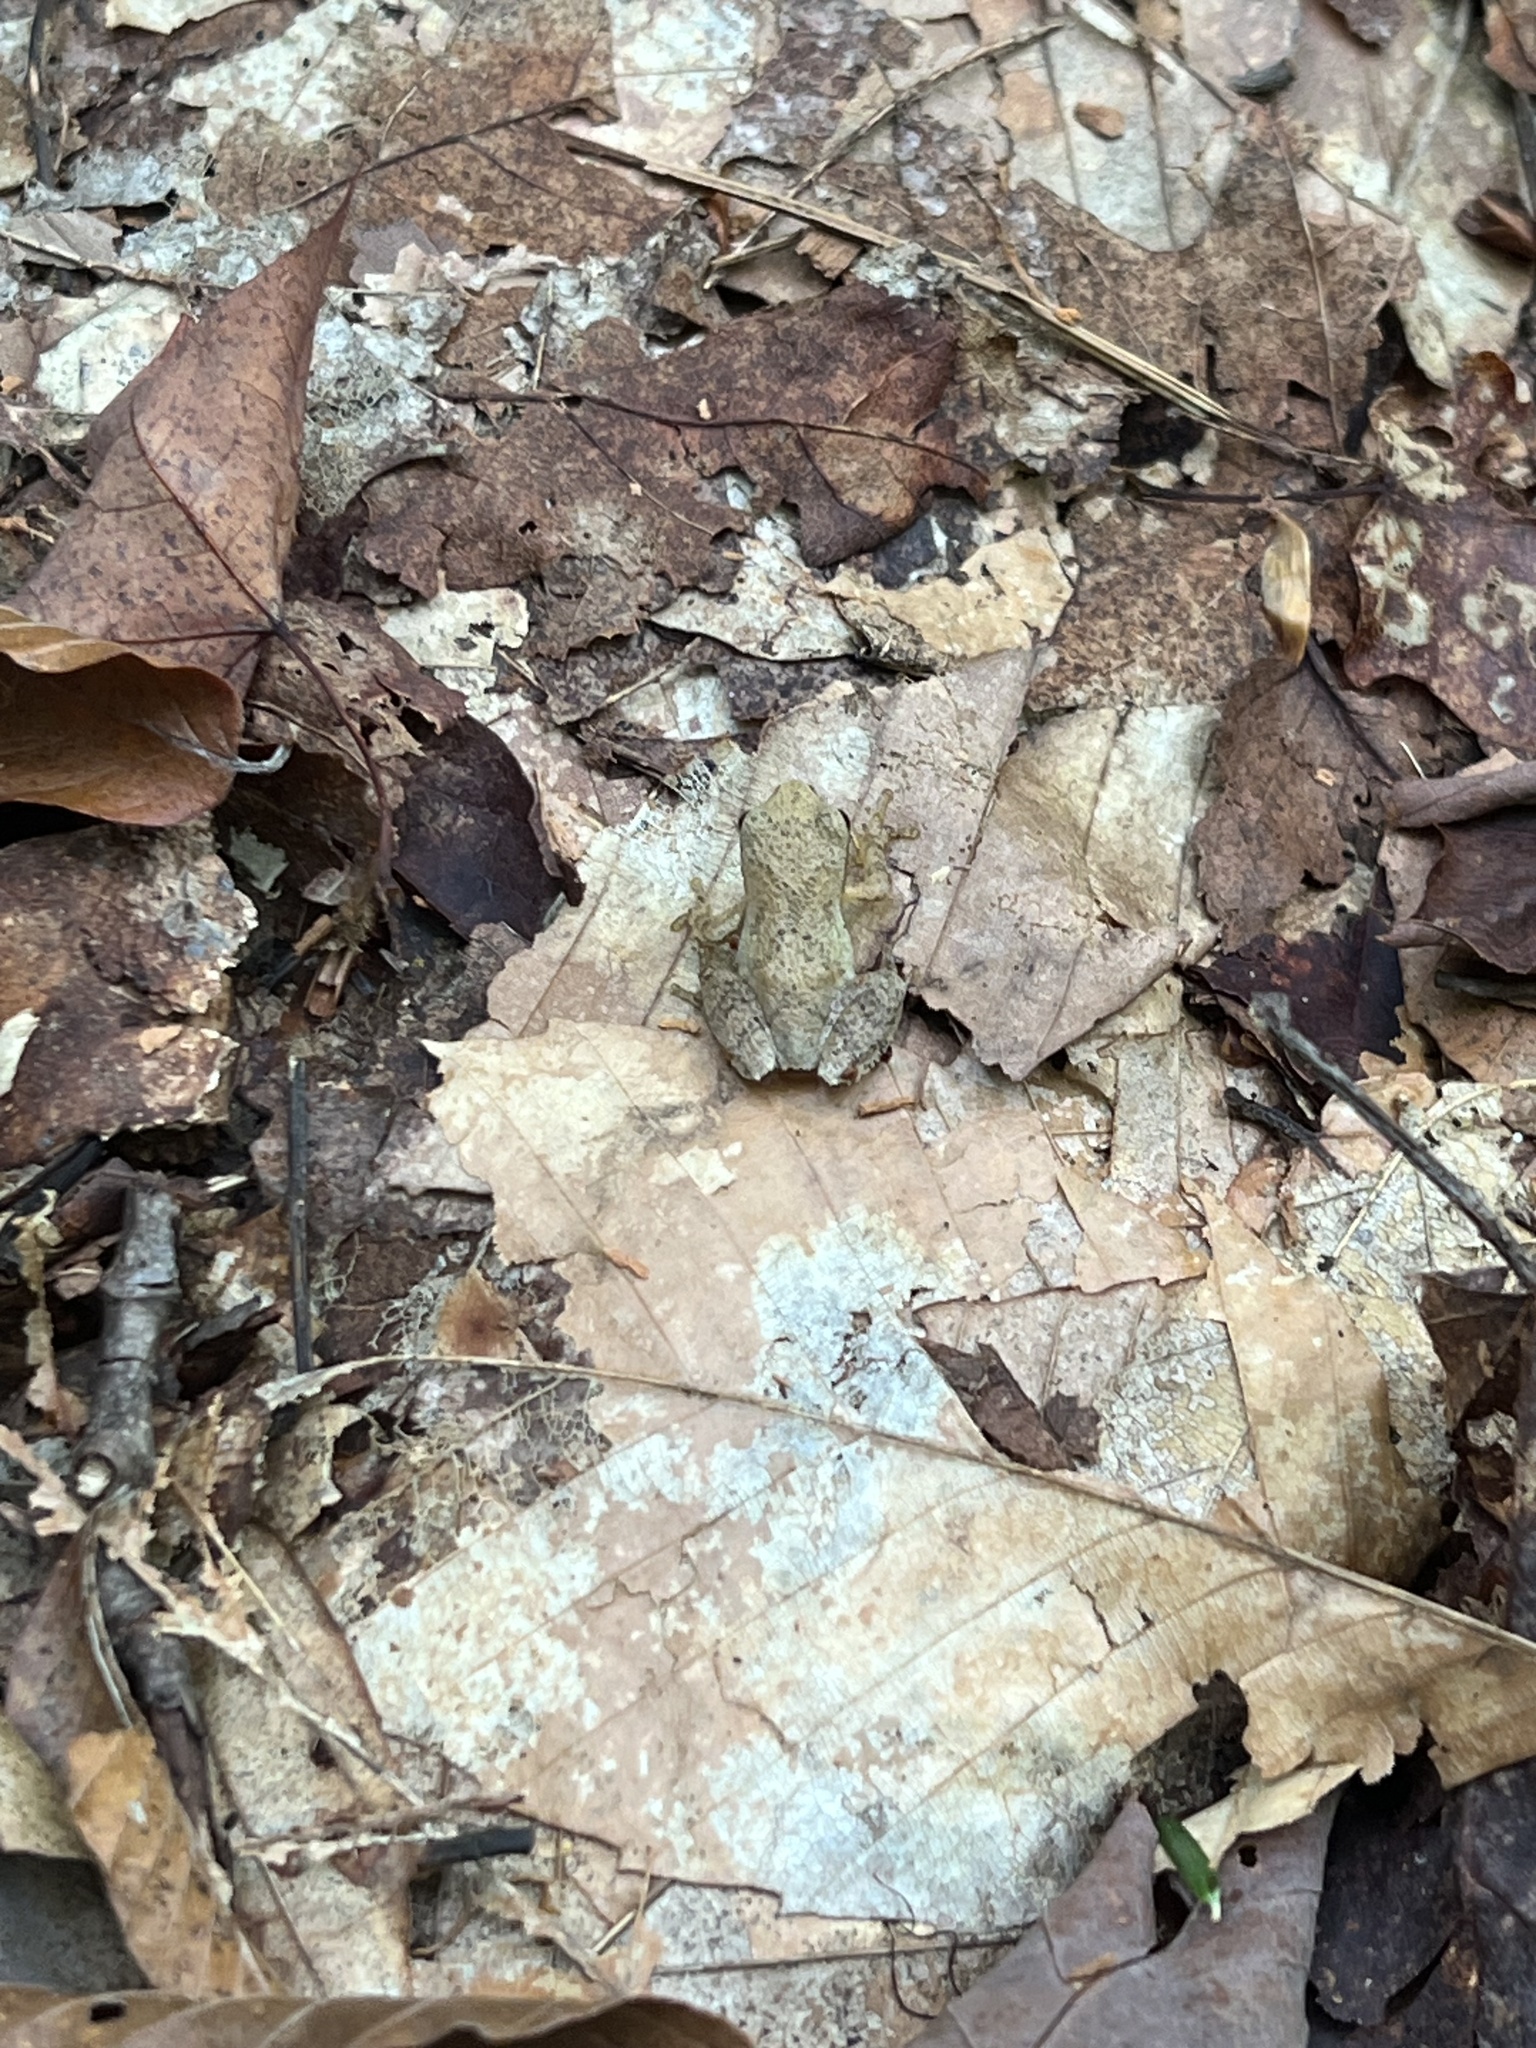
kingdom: Animalia
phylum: Chordata
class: Amphibia
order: Anura
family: Hylidae
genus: Pseudacris
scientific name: Pseudacris crucifer
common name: Spring peeper
